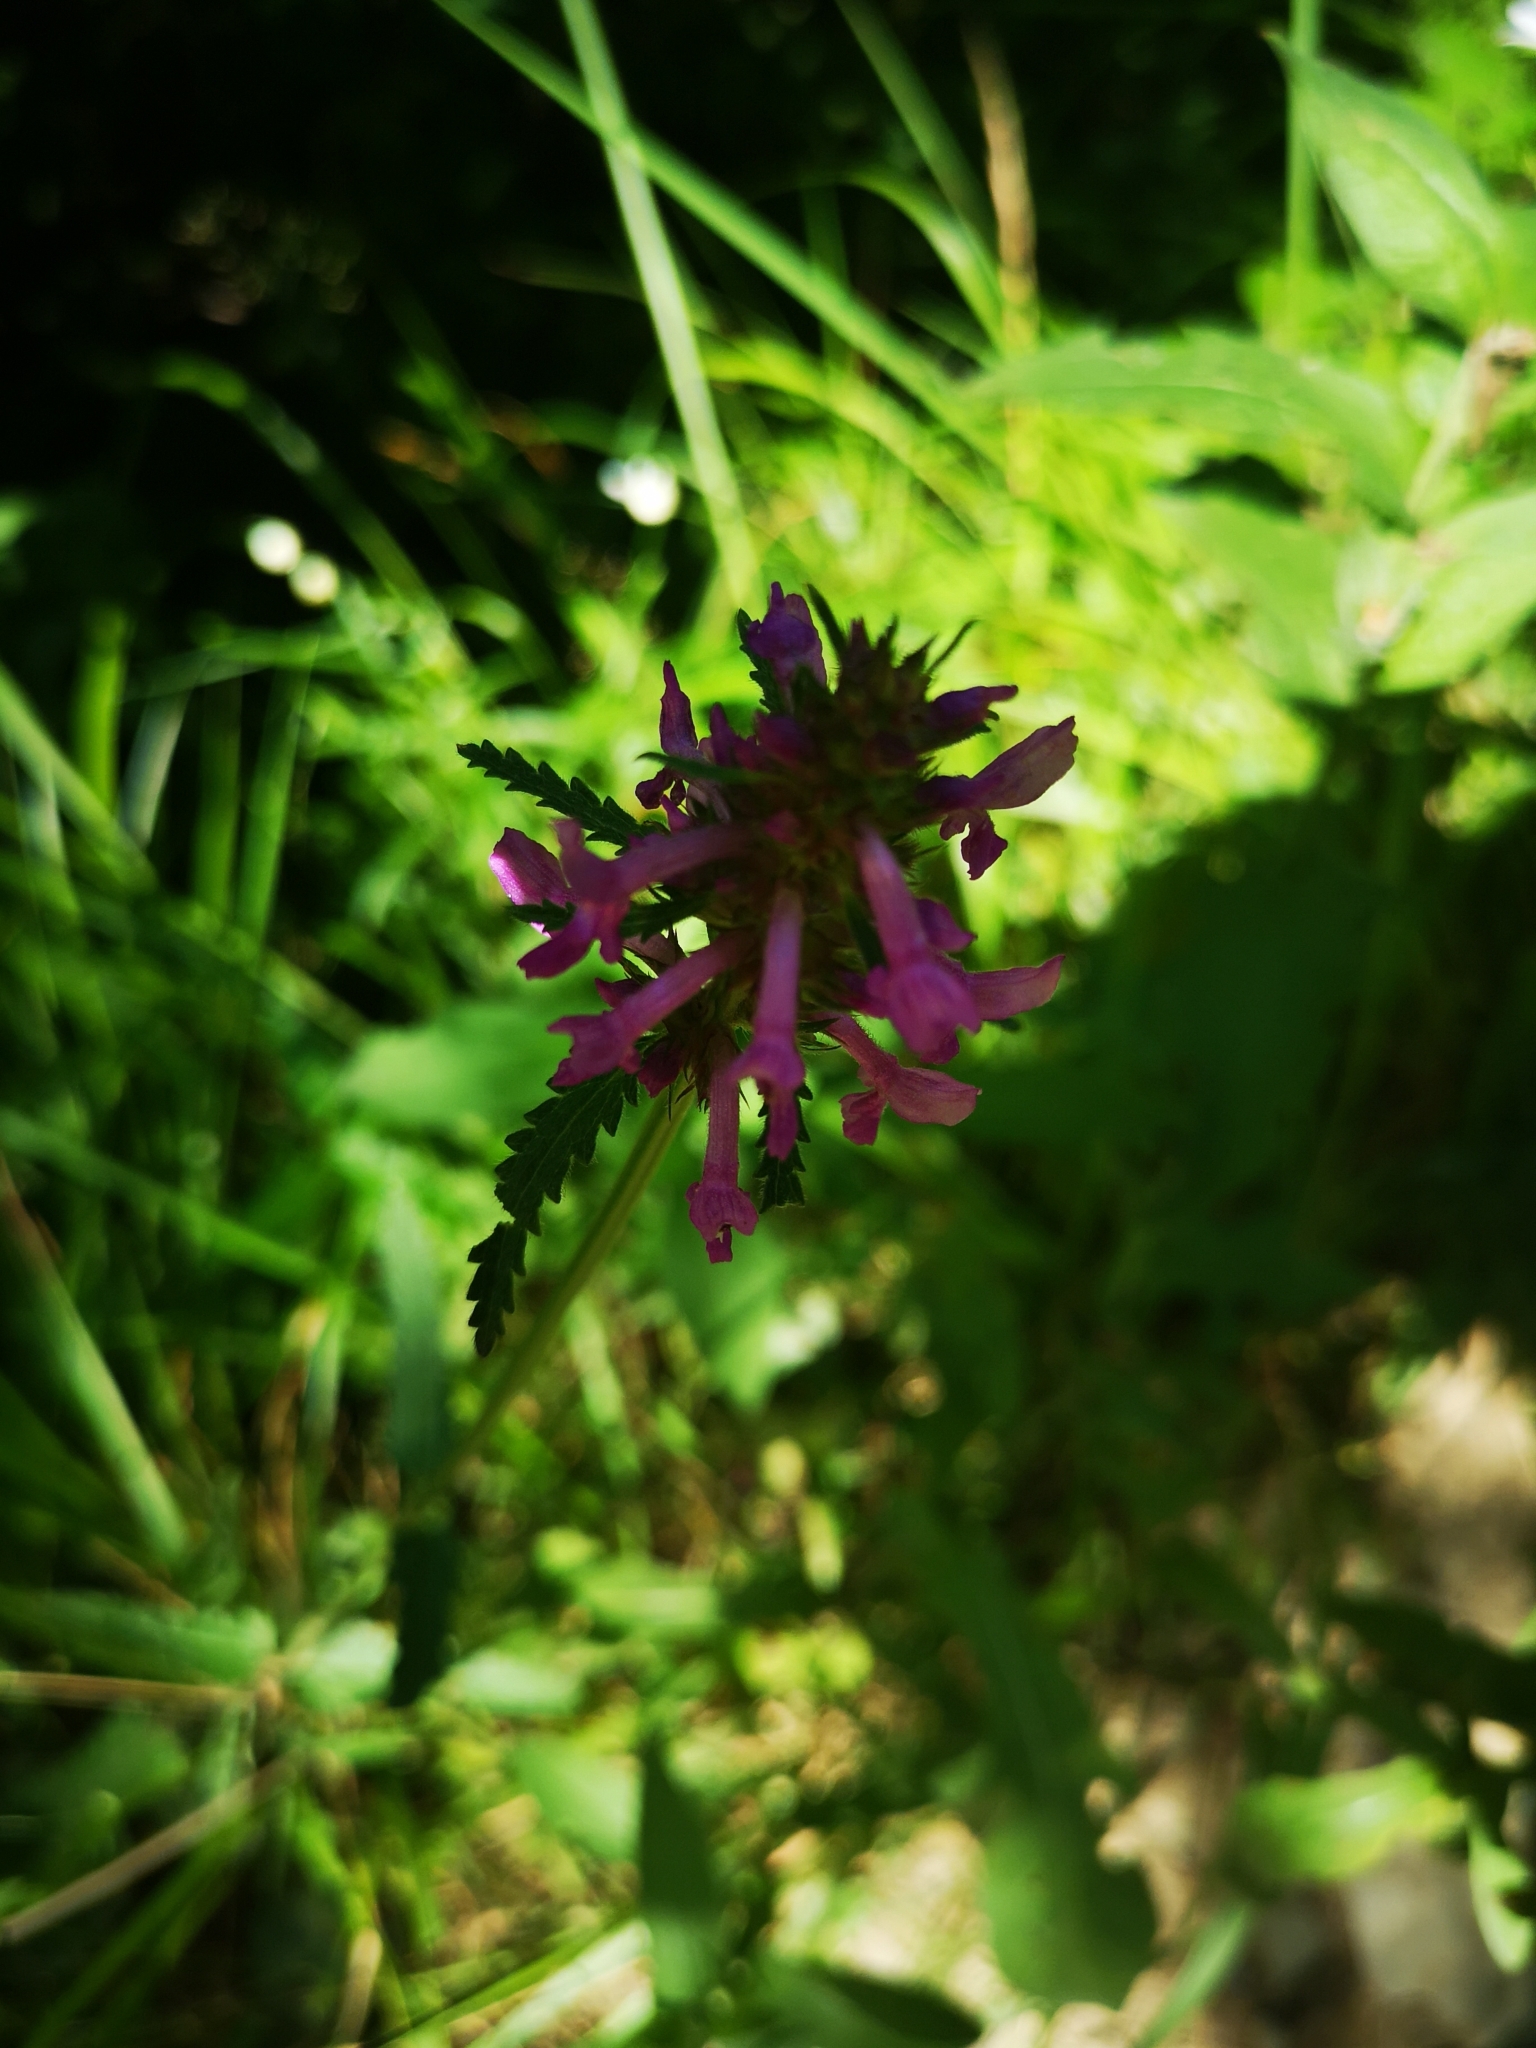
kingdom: Plantae
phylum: Tracheophyta
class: Magnoliopsida
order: Lamiales
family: Lamiaceae
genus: Betonica
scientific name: Betonica officinalis
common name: Bishop's-wort
